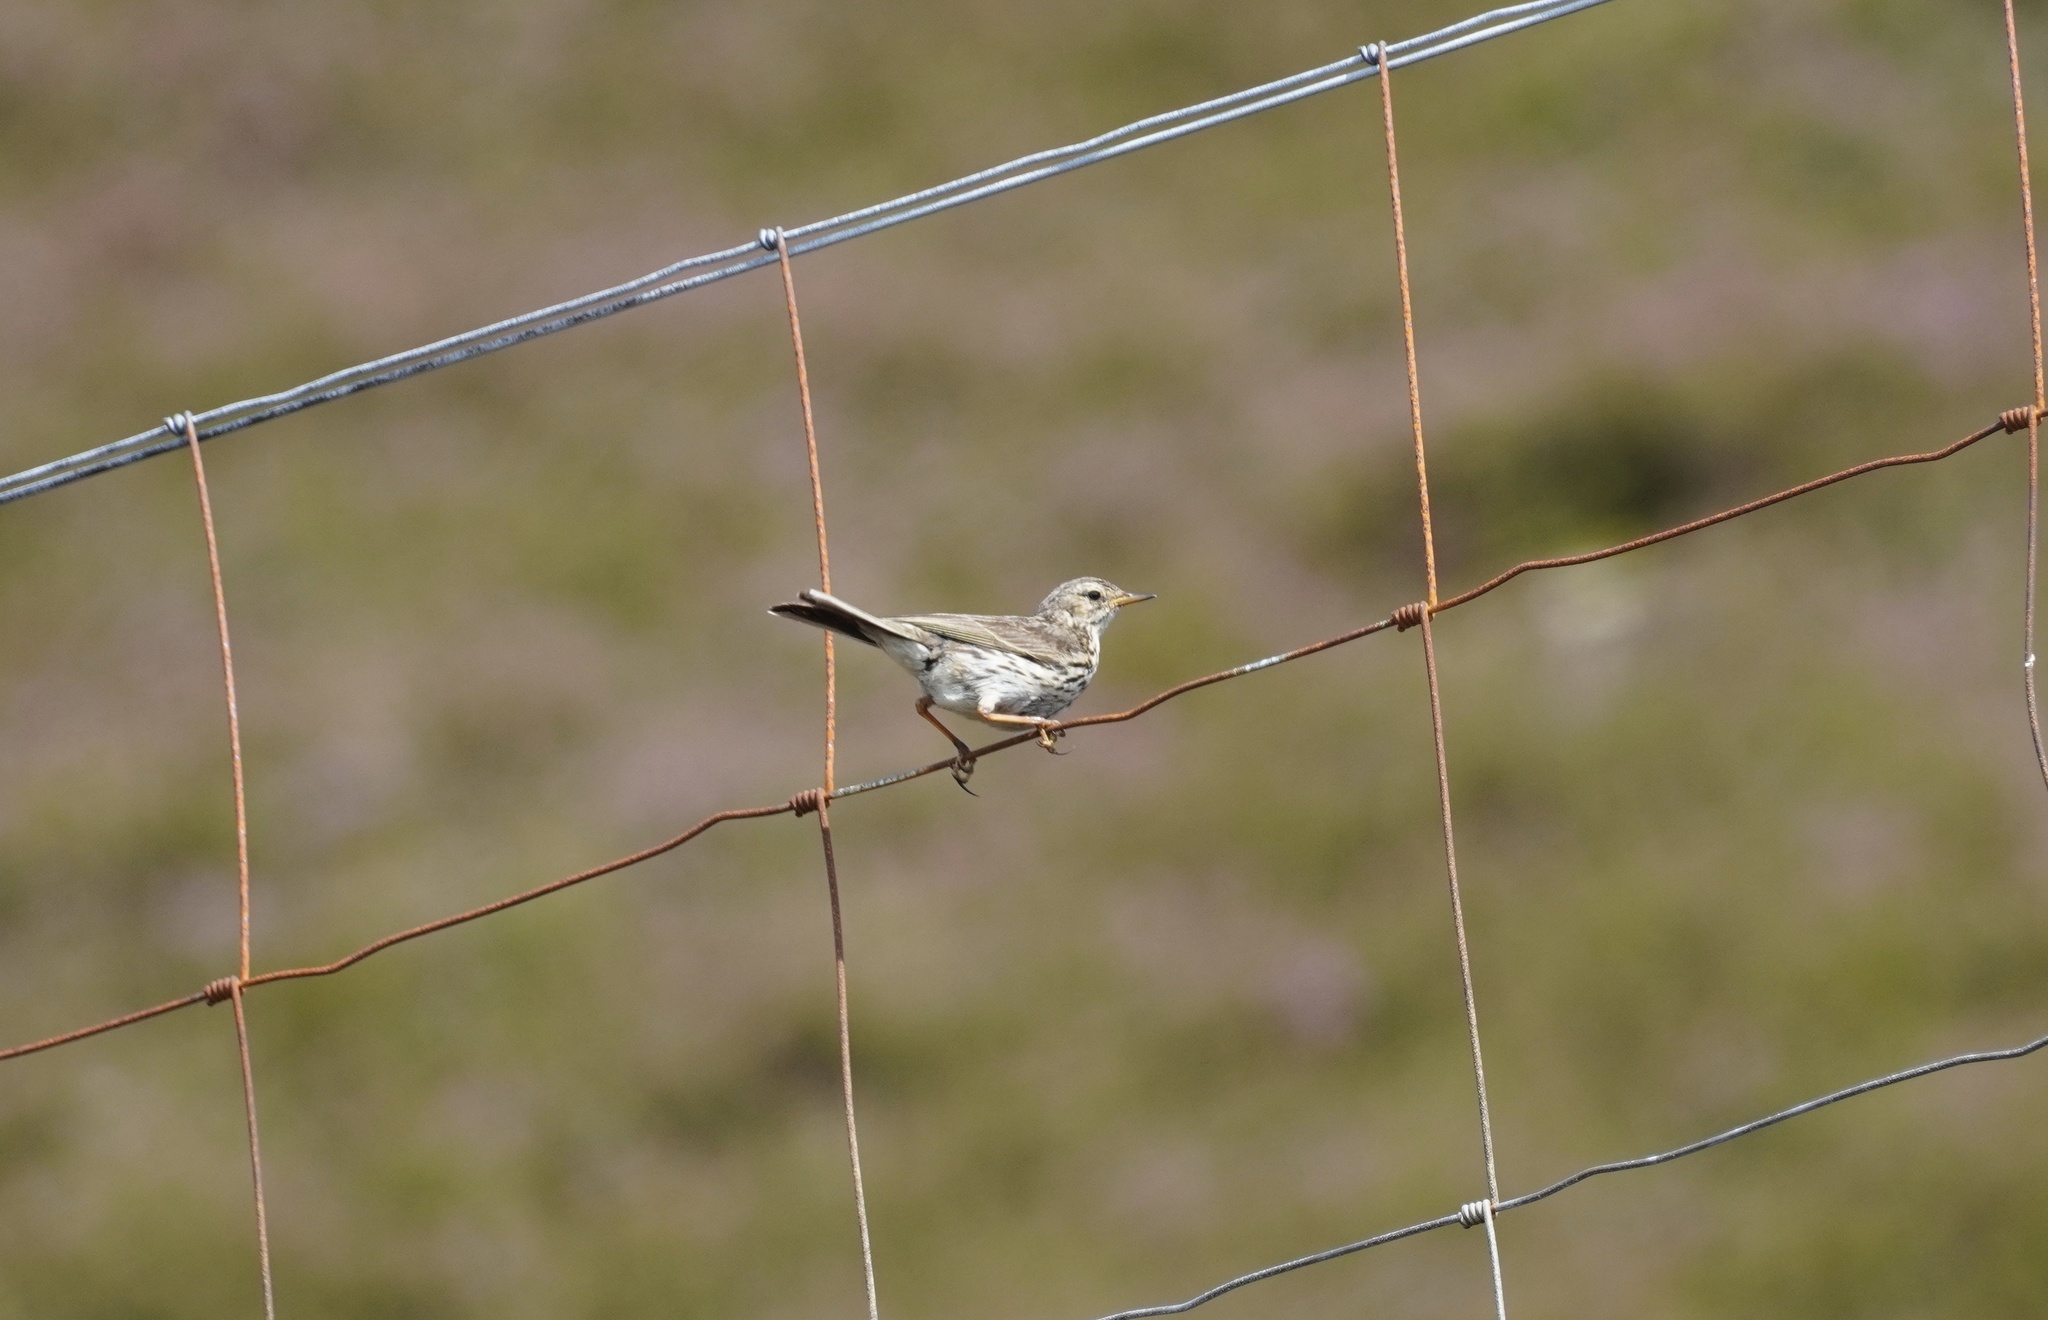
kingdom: Animalia
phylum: Chordata
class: Aves
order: Passeriformes
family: Motacillidae
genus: Anthus
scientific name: Anthus pratensis
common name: Meadow pipit
